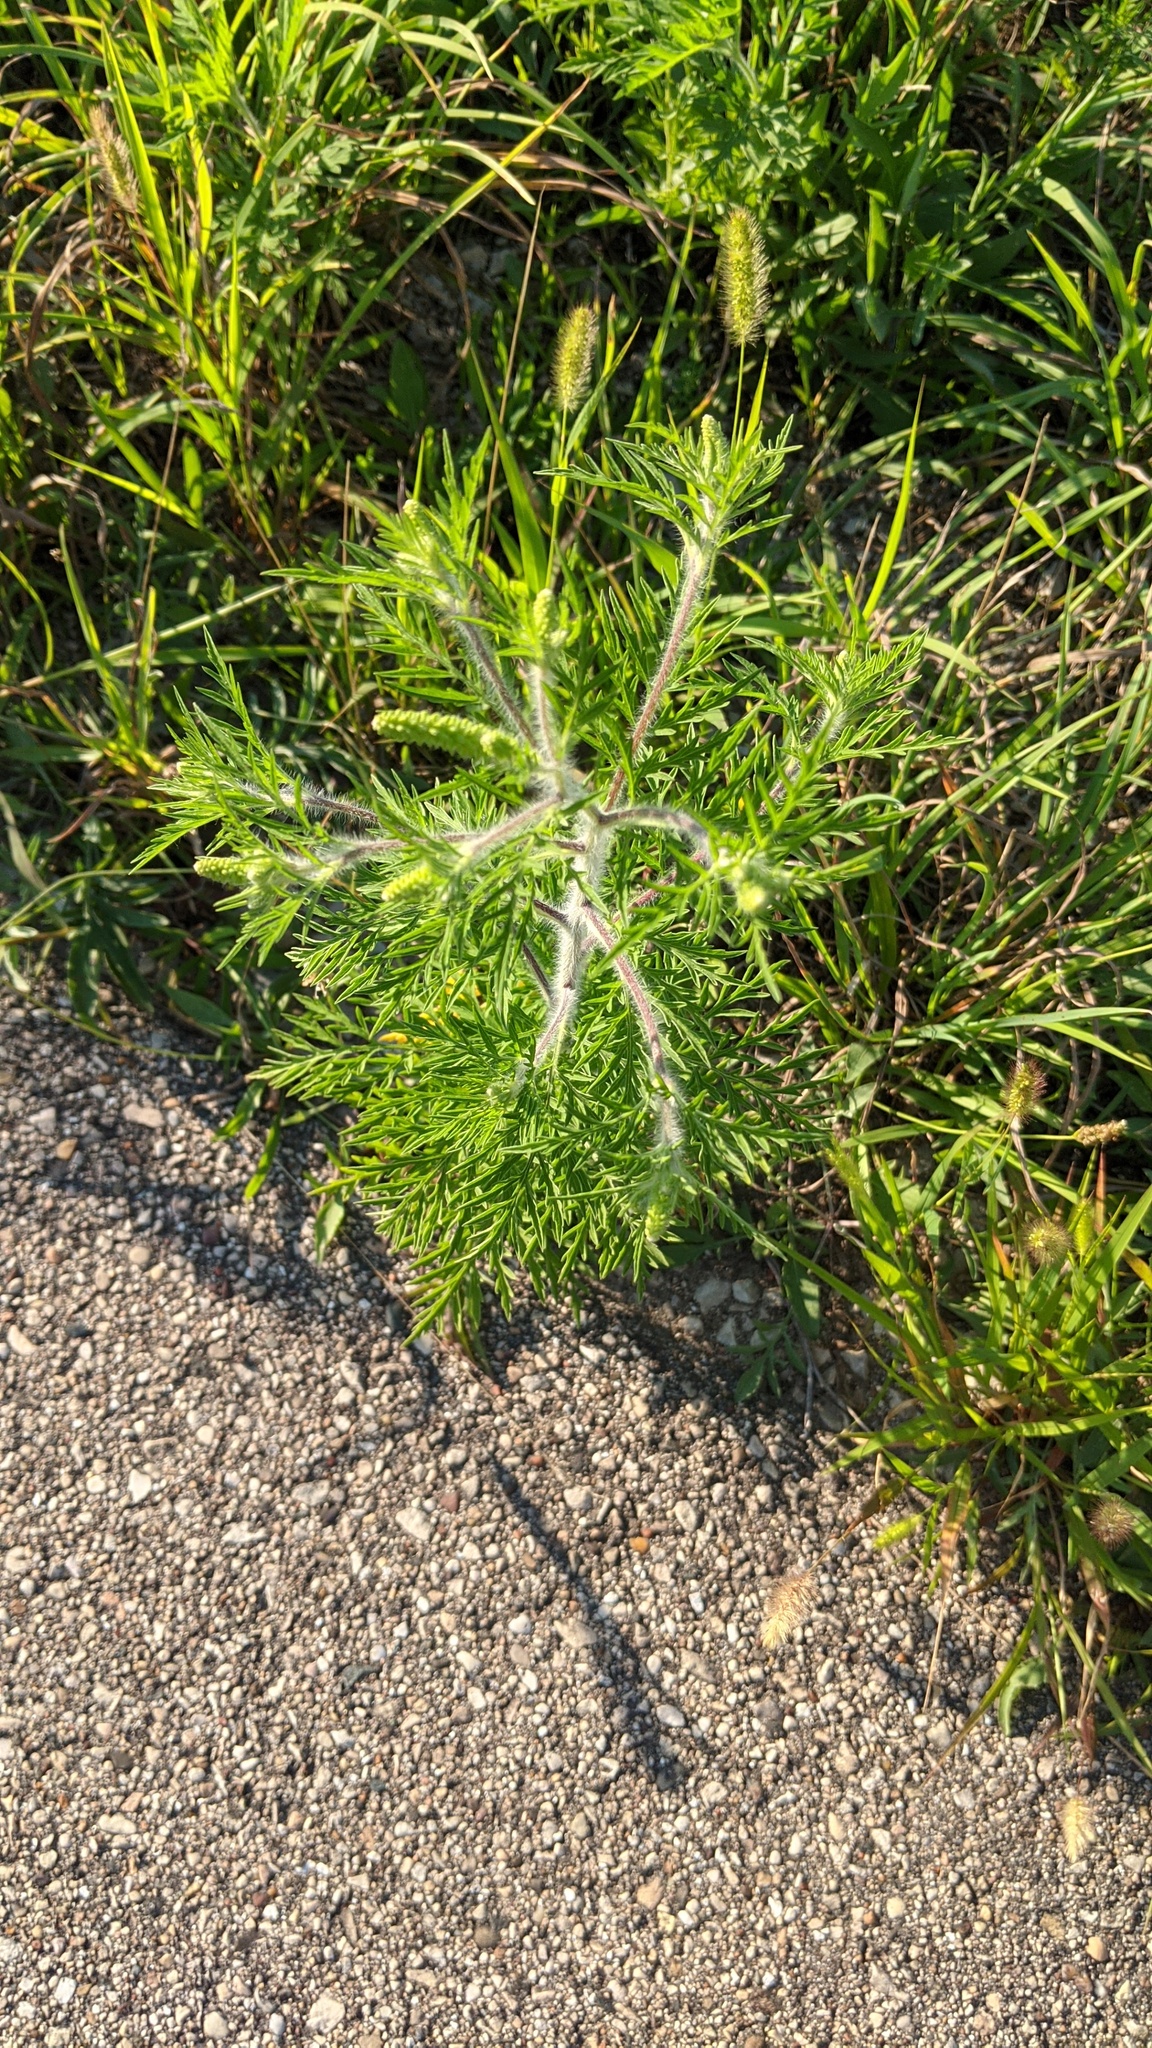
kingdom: Plantae
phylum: Tracheophyta
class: Magnoliopsida
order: Asterales
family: Asteraceae
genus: Ambrosia
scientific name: Ambrosia artemisiifolia
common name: Annual ragweed
